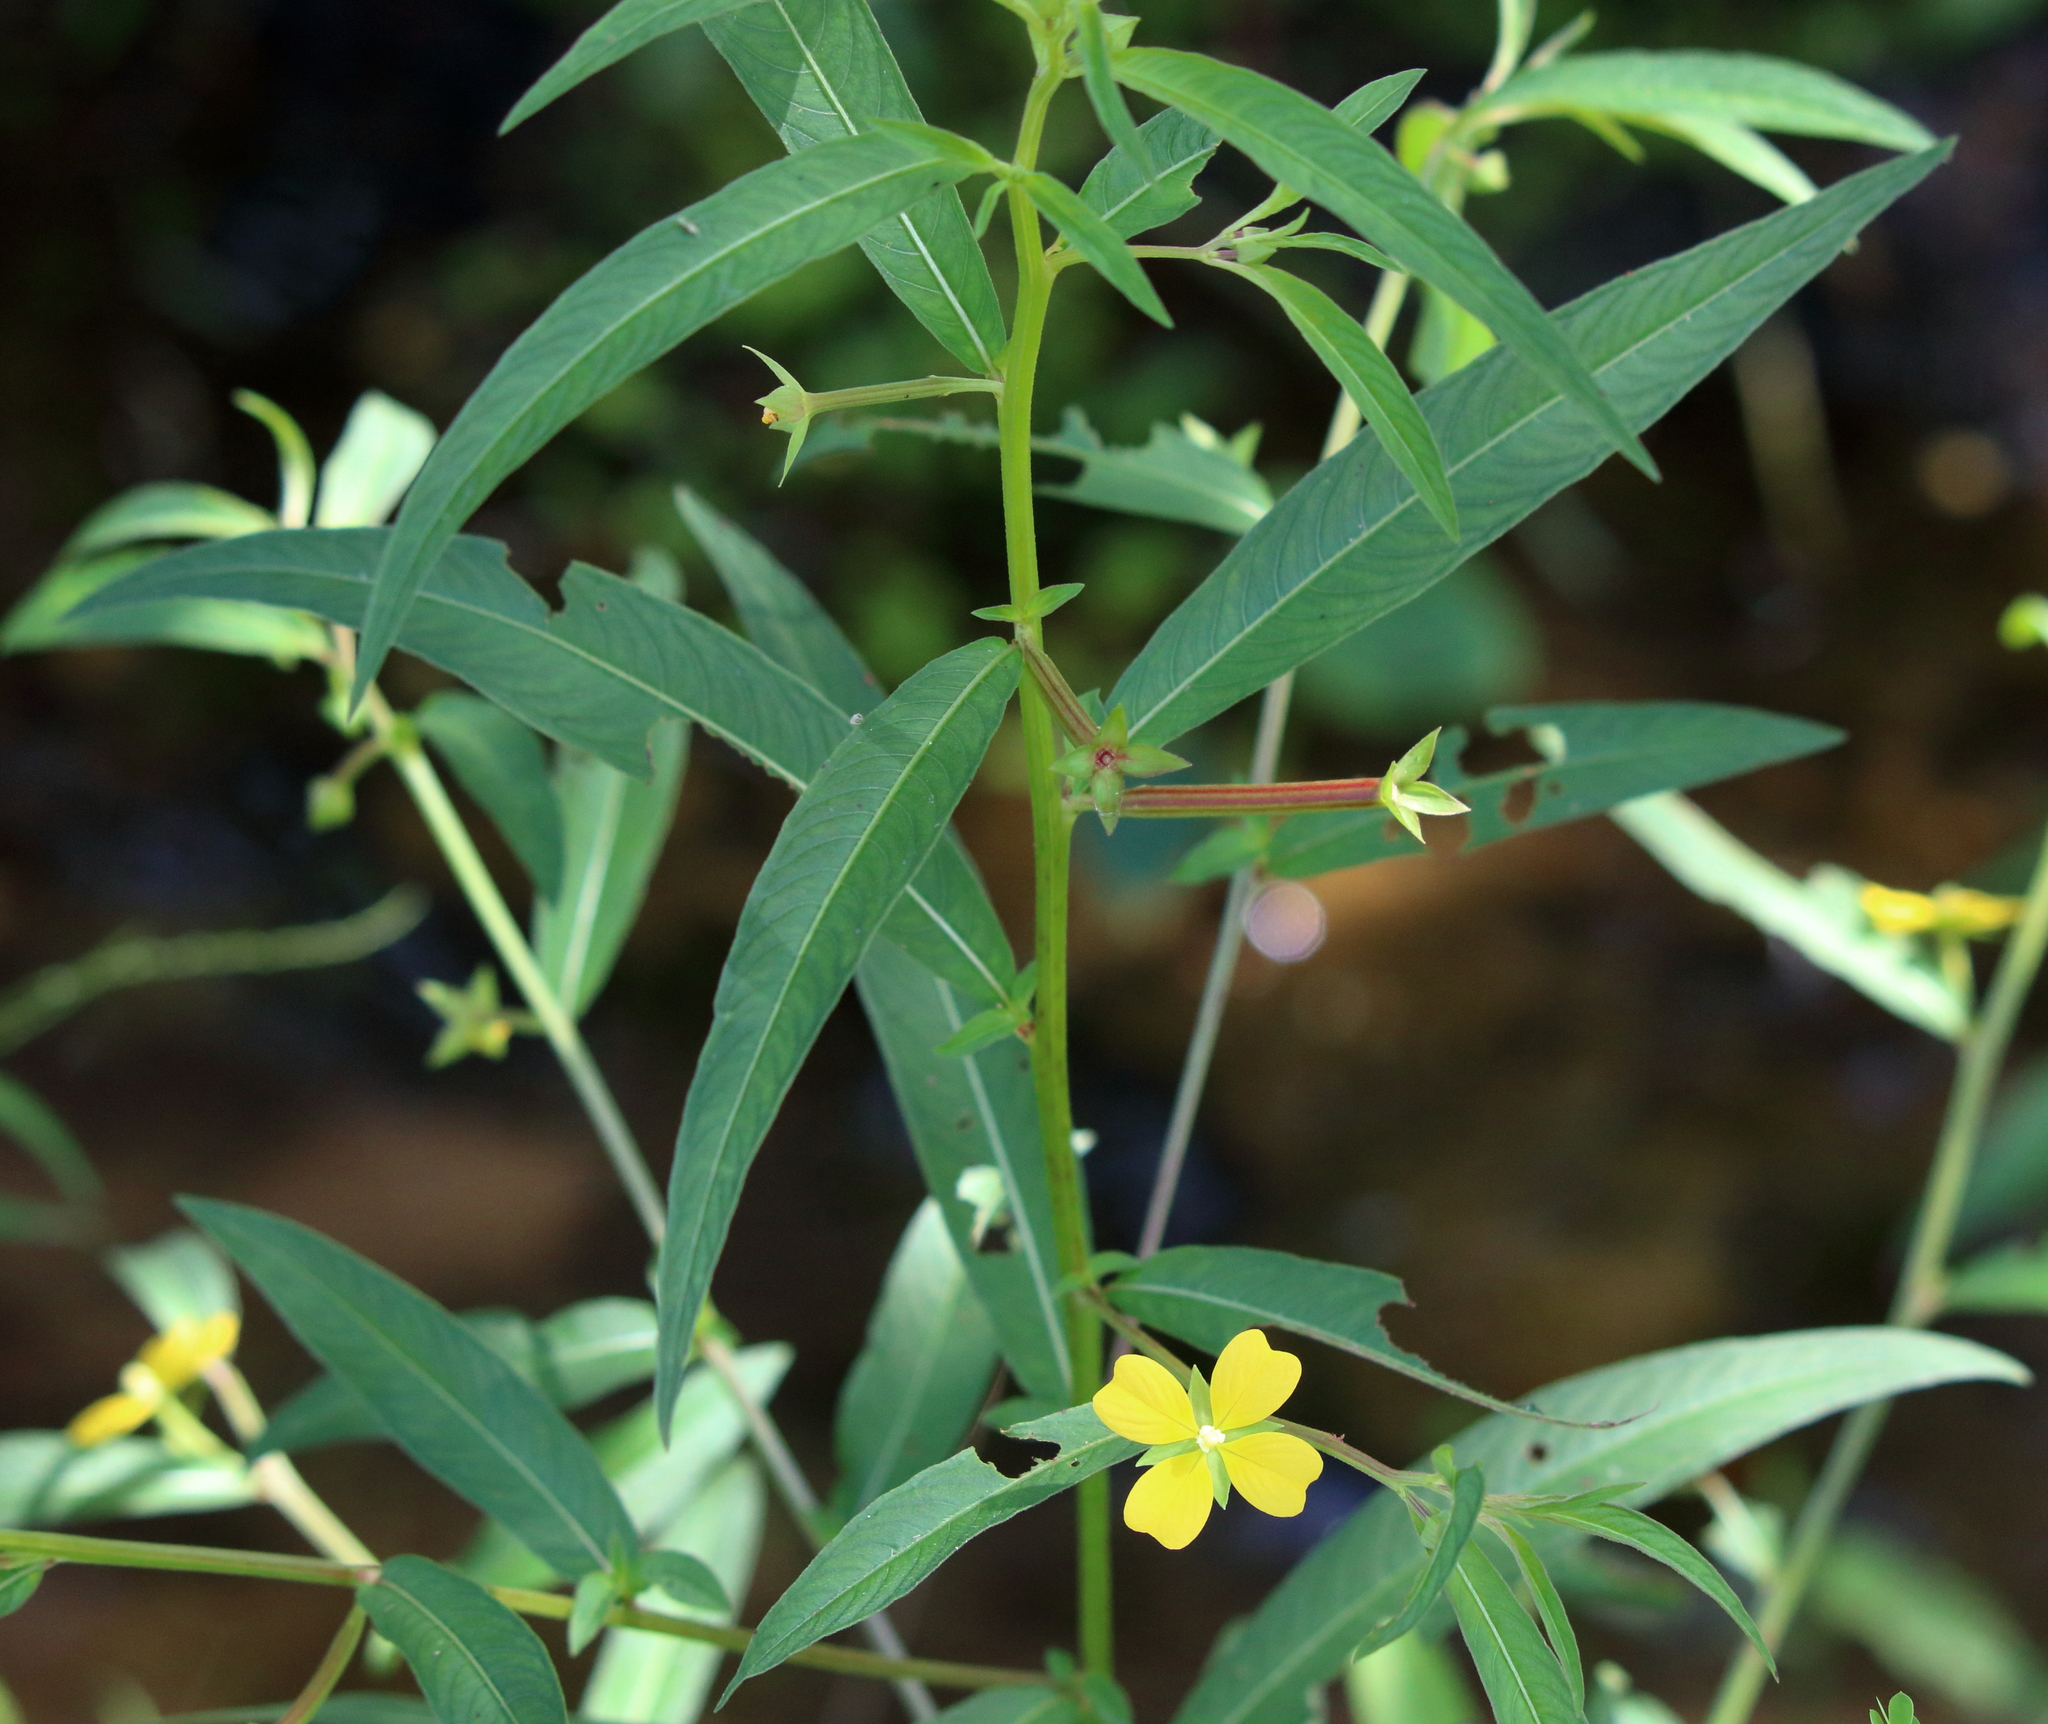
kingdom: Plantae
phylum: Tracheophyta
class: Magnoliopsida
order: Myrtales
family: Onagraceae
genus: Ludwigia
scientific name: Ludwigia octovalvis
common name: Water-primrose
